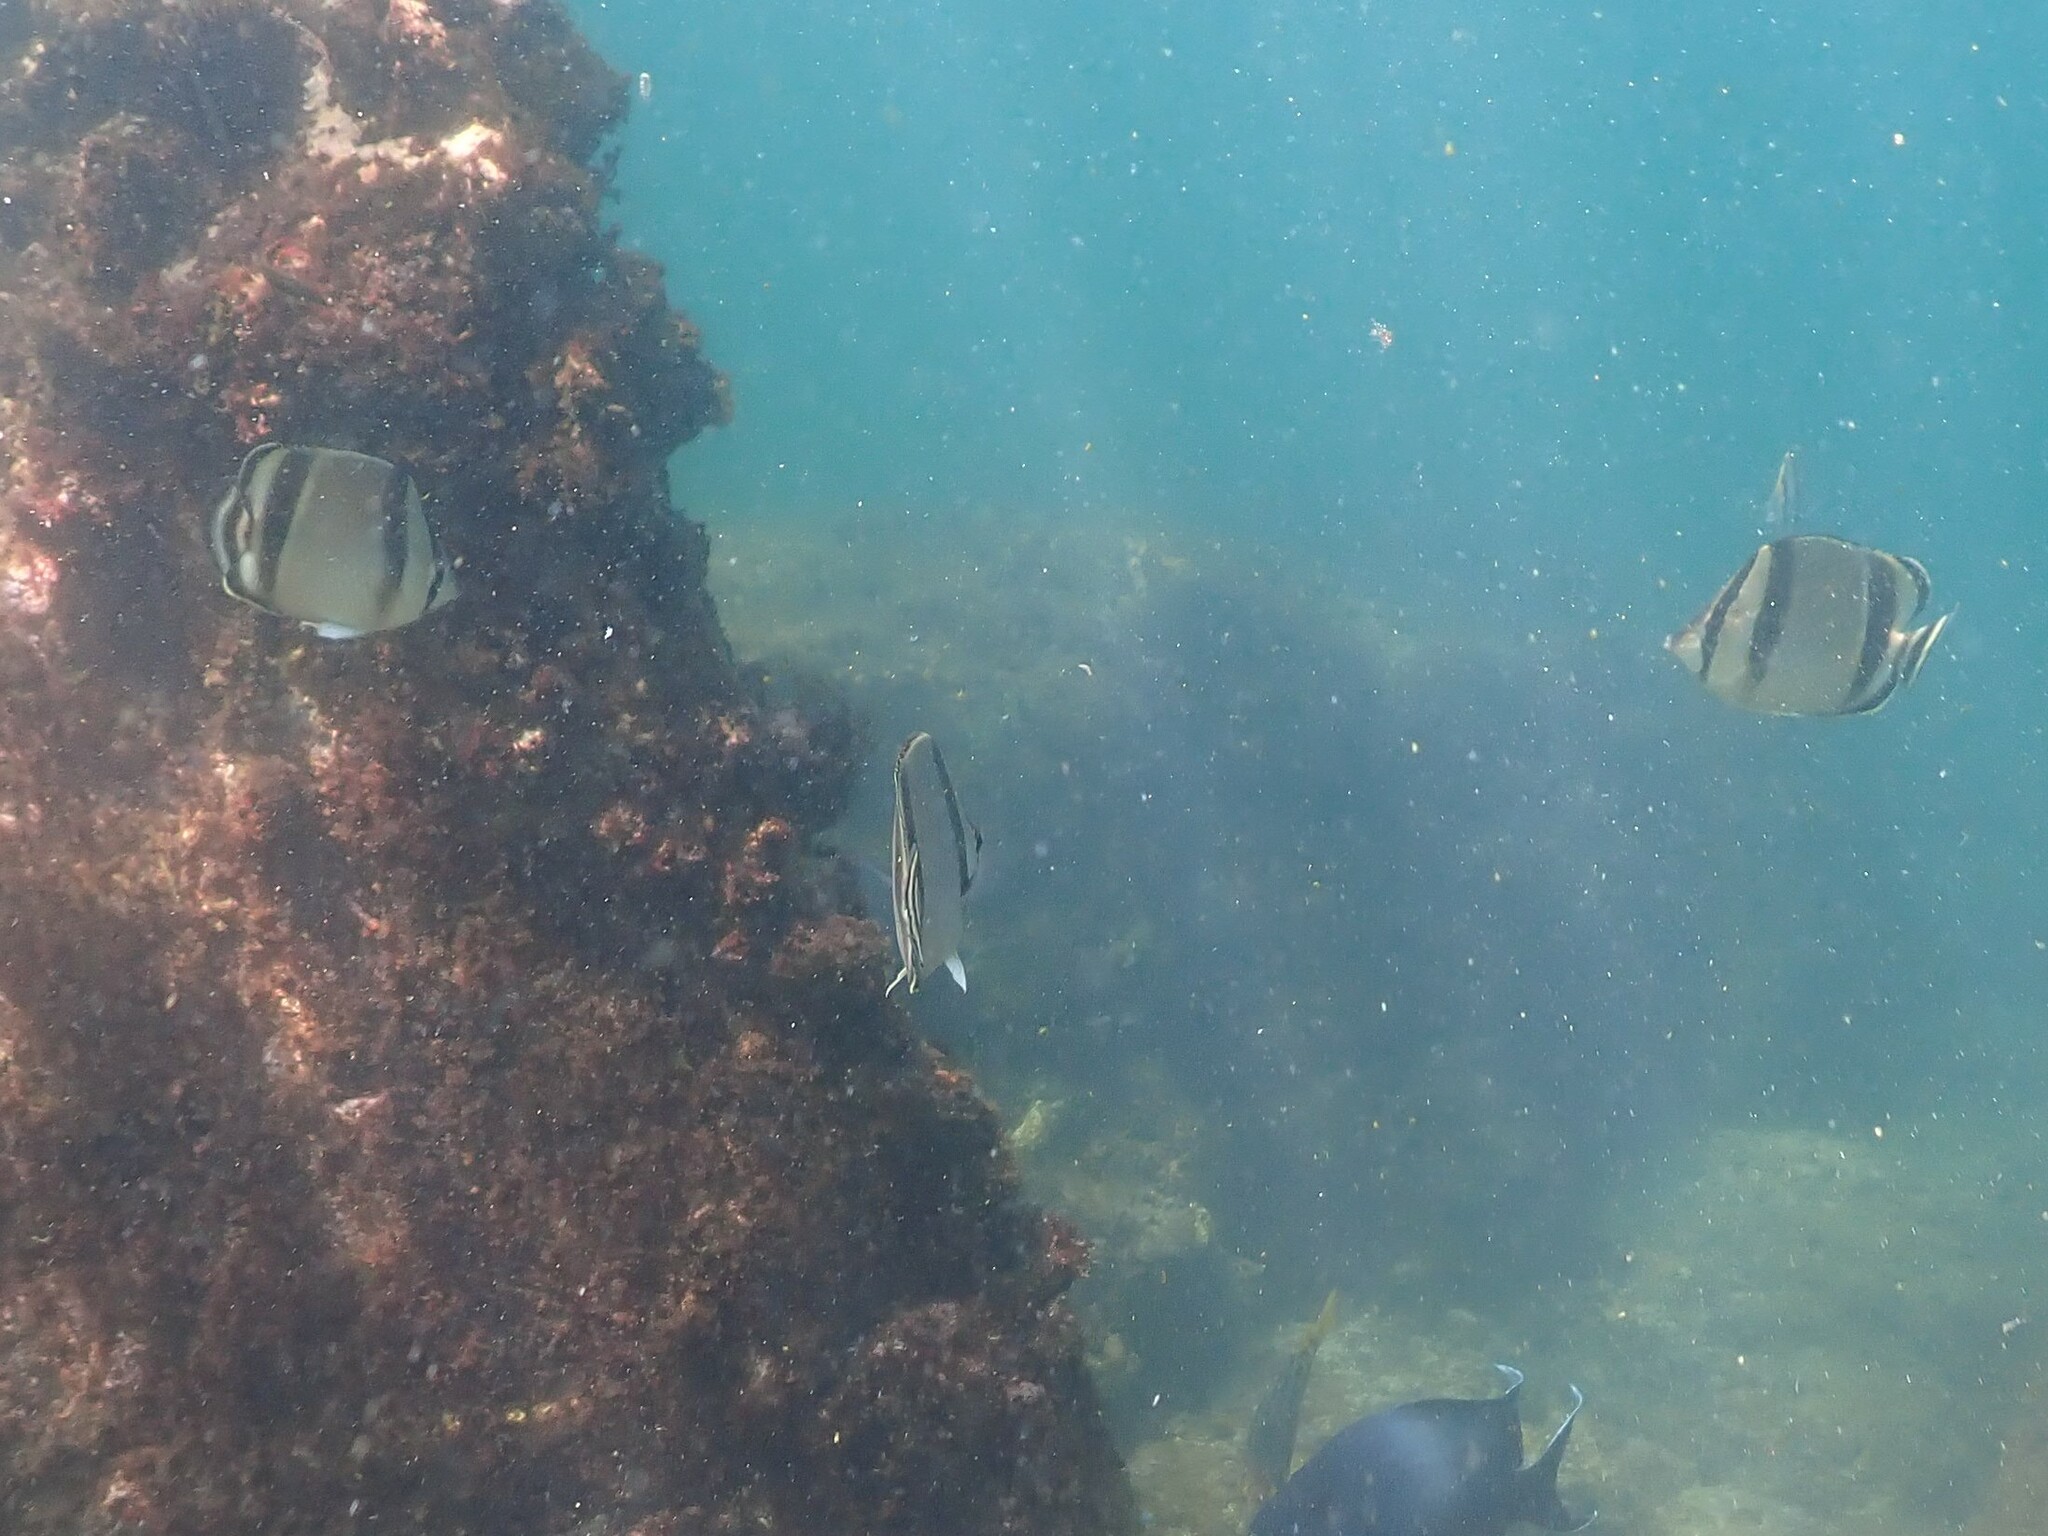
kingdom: Animalia
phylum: Chordata
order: Perciformes
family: Chaetodontidae
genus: Chaetodon
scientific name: Chaetodon humeralis
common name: Threebanded butterflyfish
